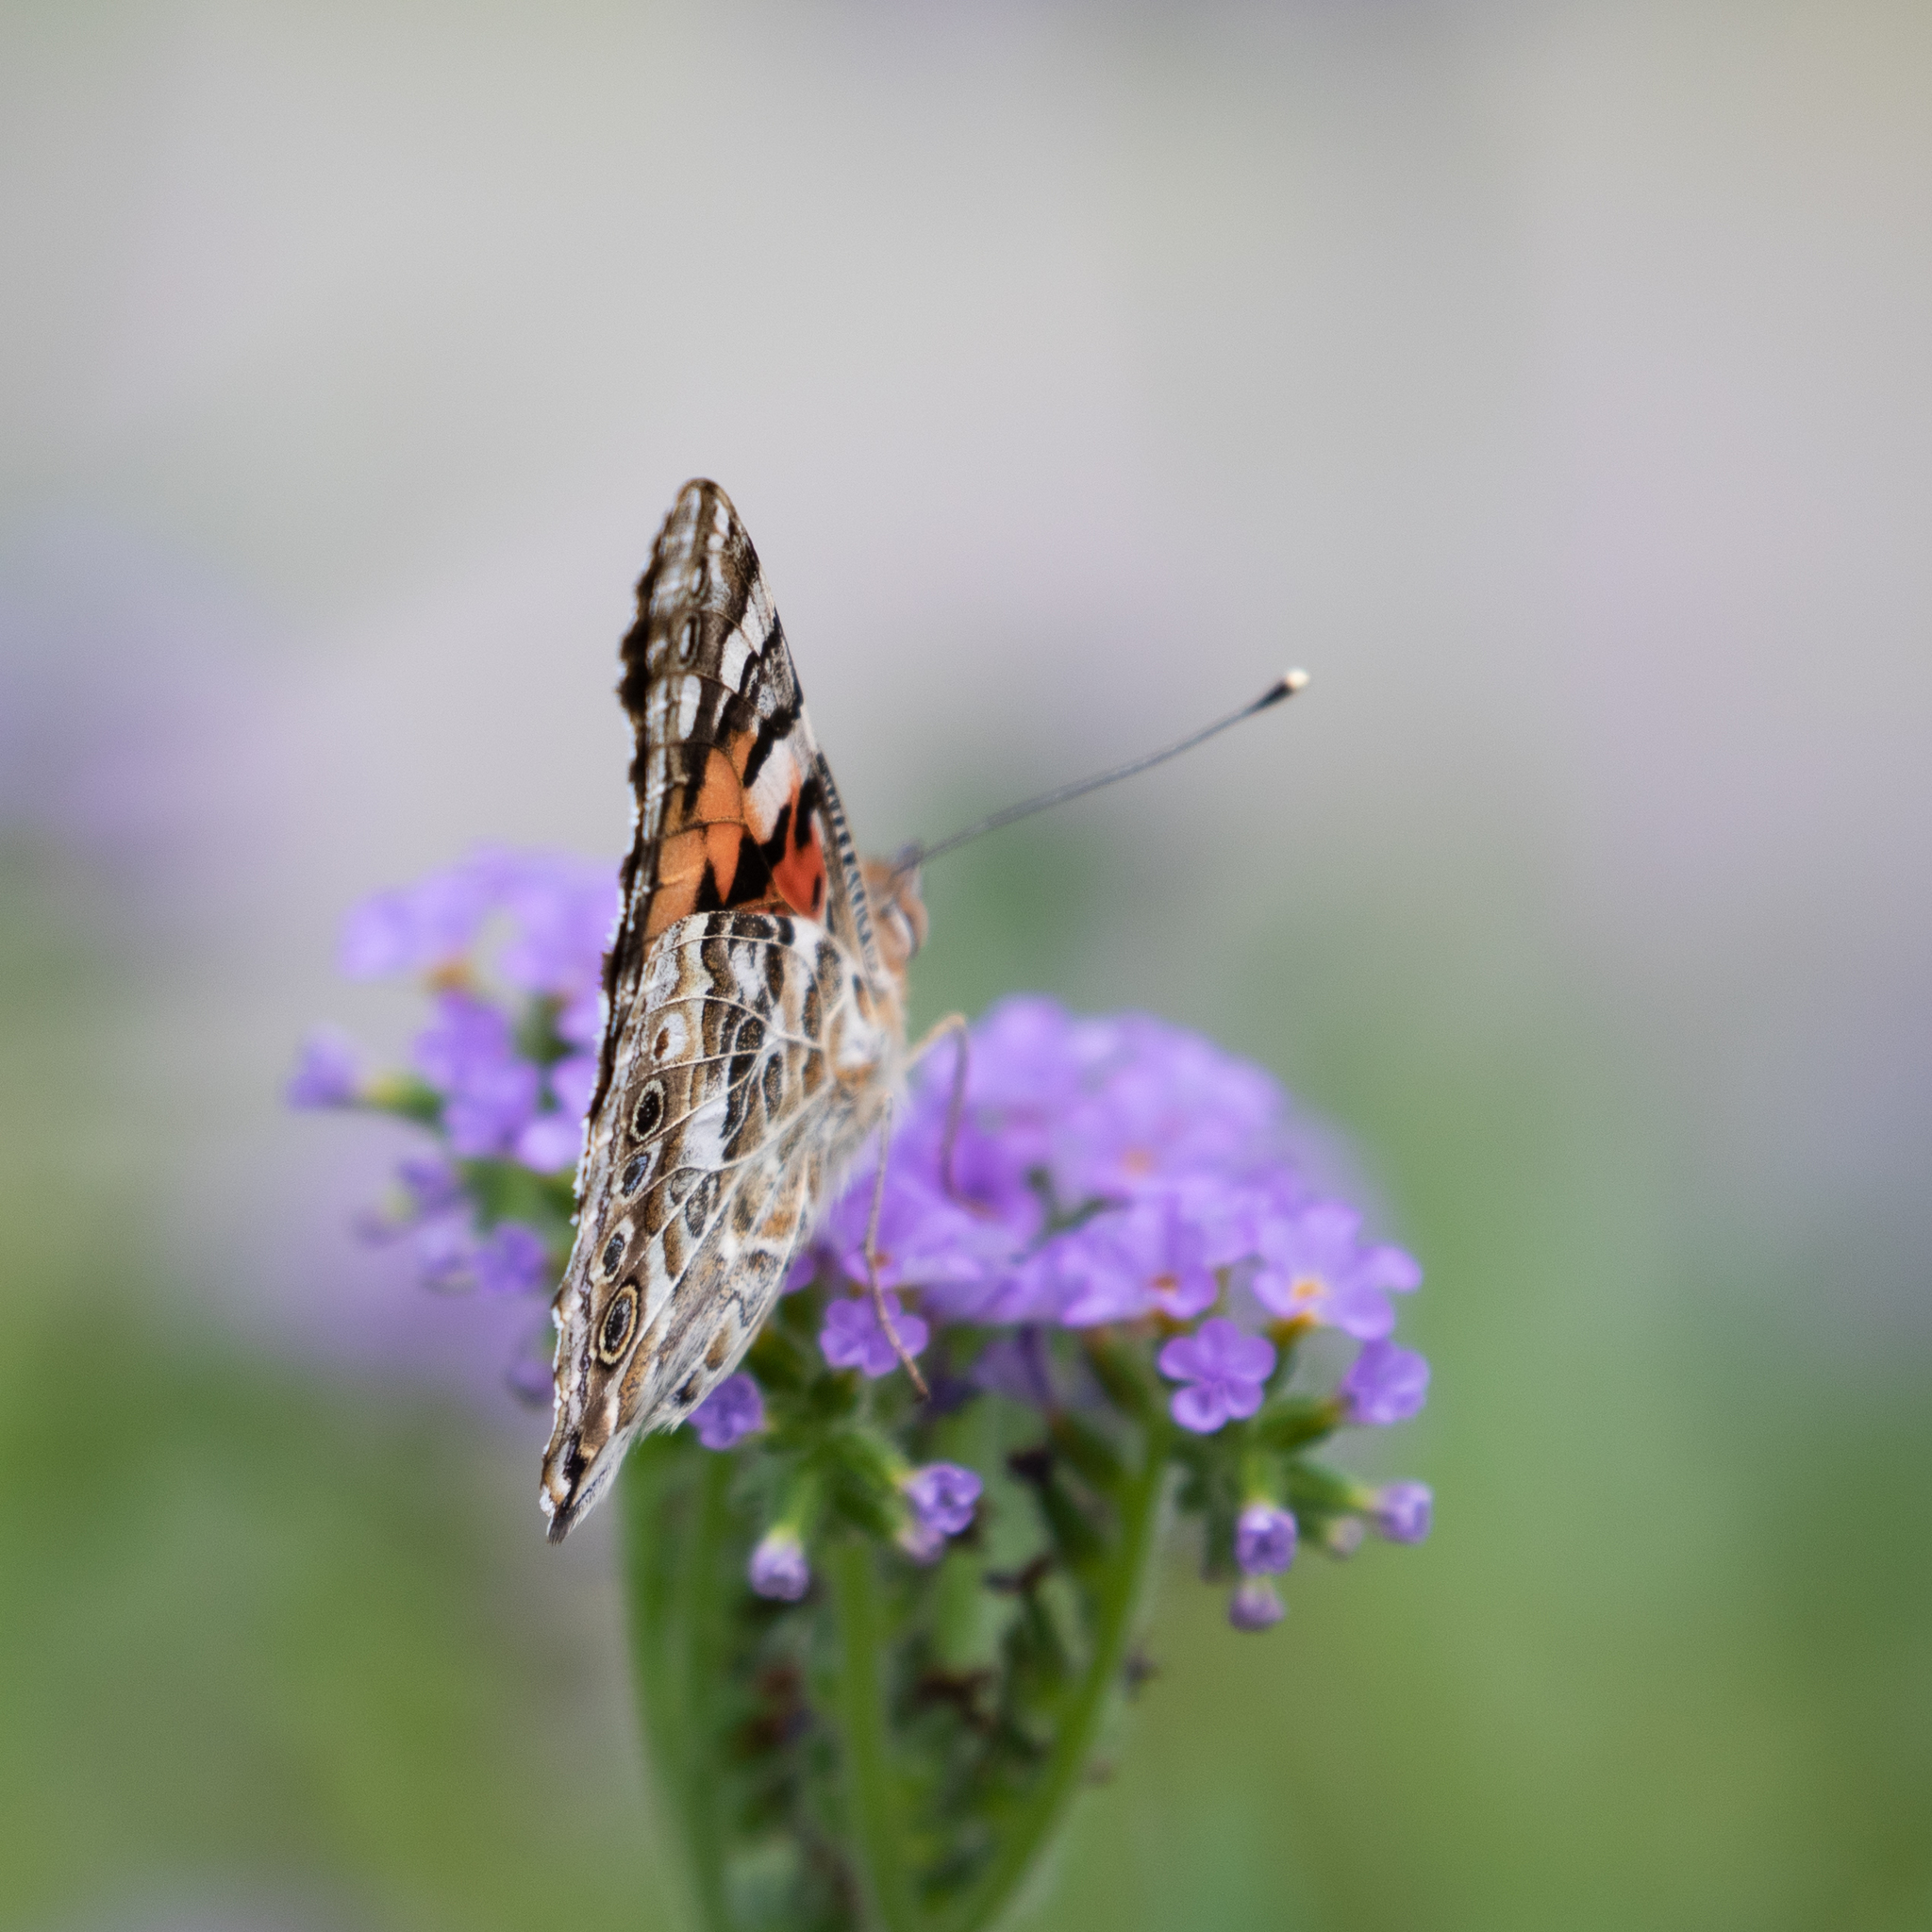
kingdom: Animalia
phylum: Arthropoda
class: Insecta
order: Lepidoptera
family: Nymphalidae
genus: Vanessa
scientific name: Vanessa cardui
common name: Painted lady
